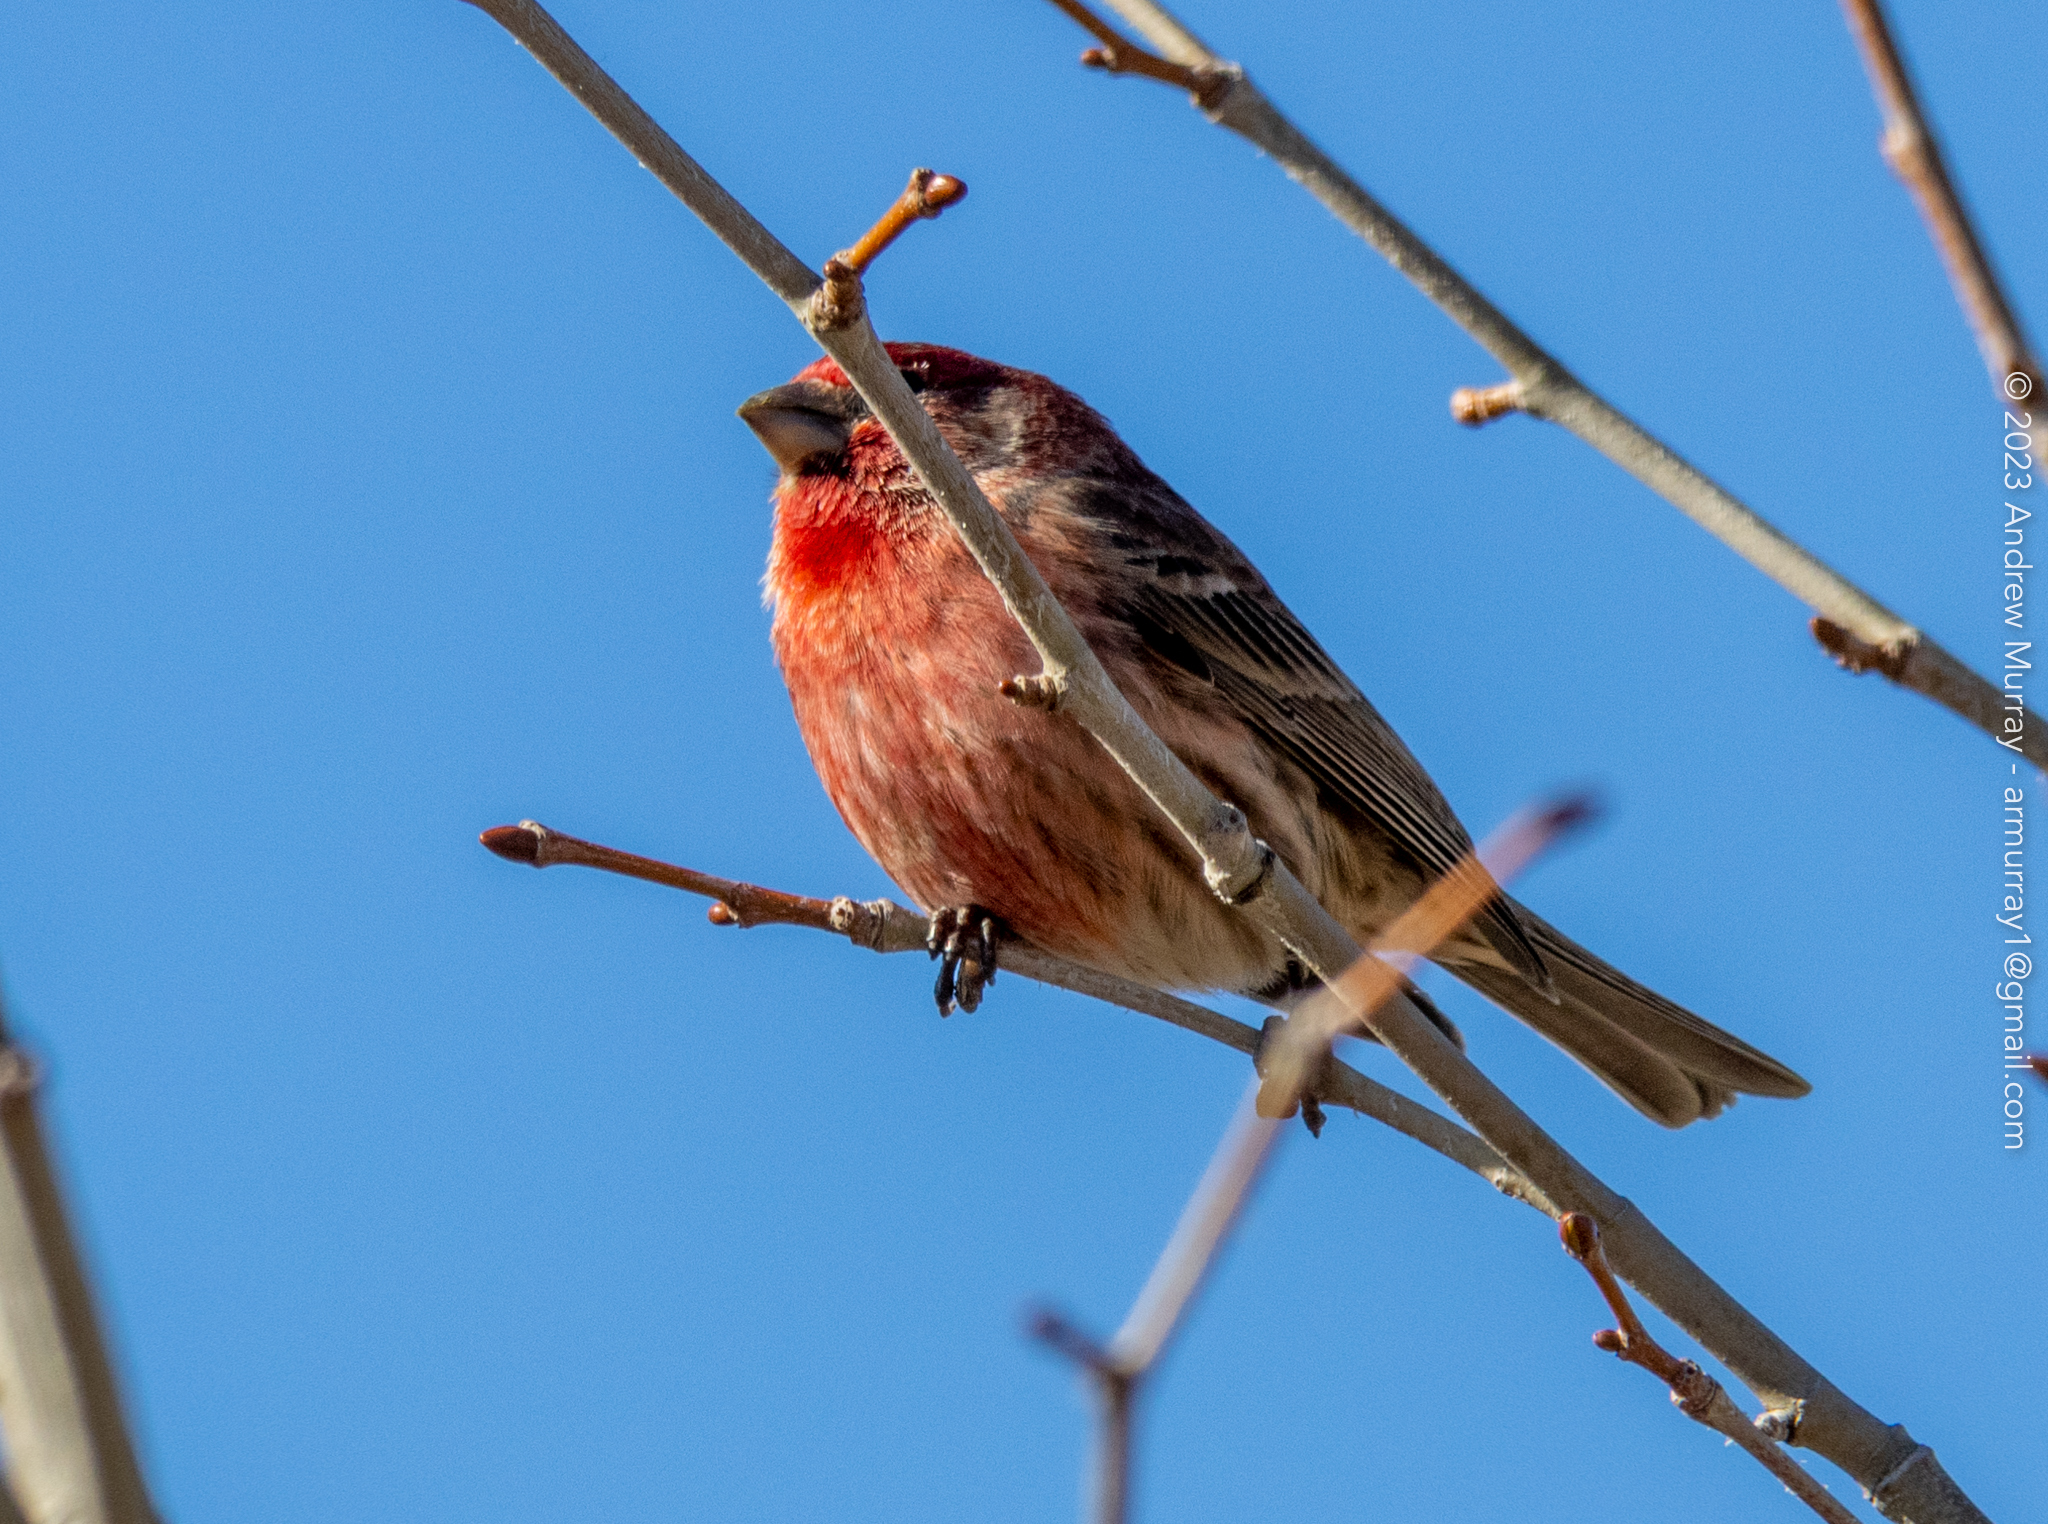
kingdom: Animalia
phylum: Chordata
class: Aves
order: Passeriformes
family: Fringillidae
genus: Haemorhous
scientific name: Haemorhous mexicanus
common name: House finch
